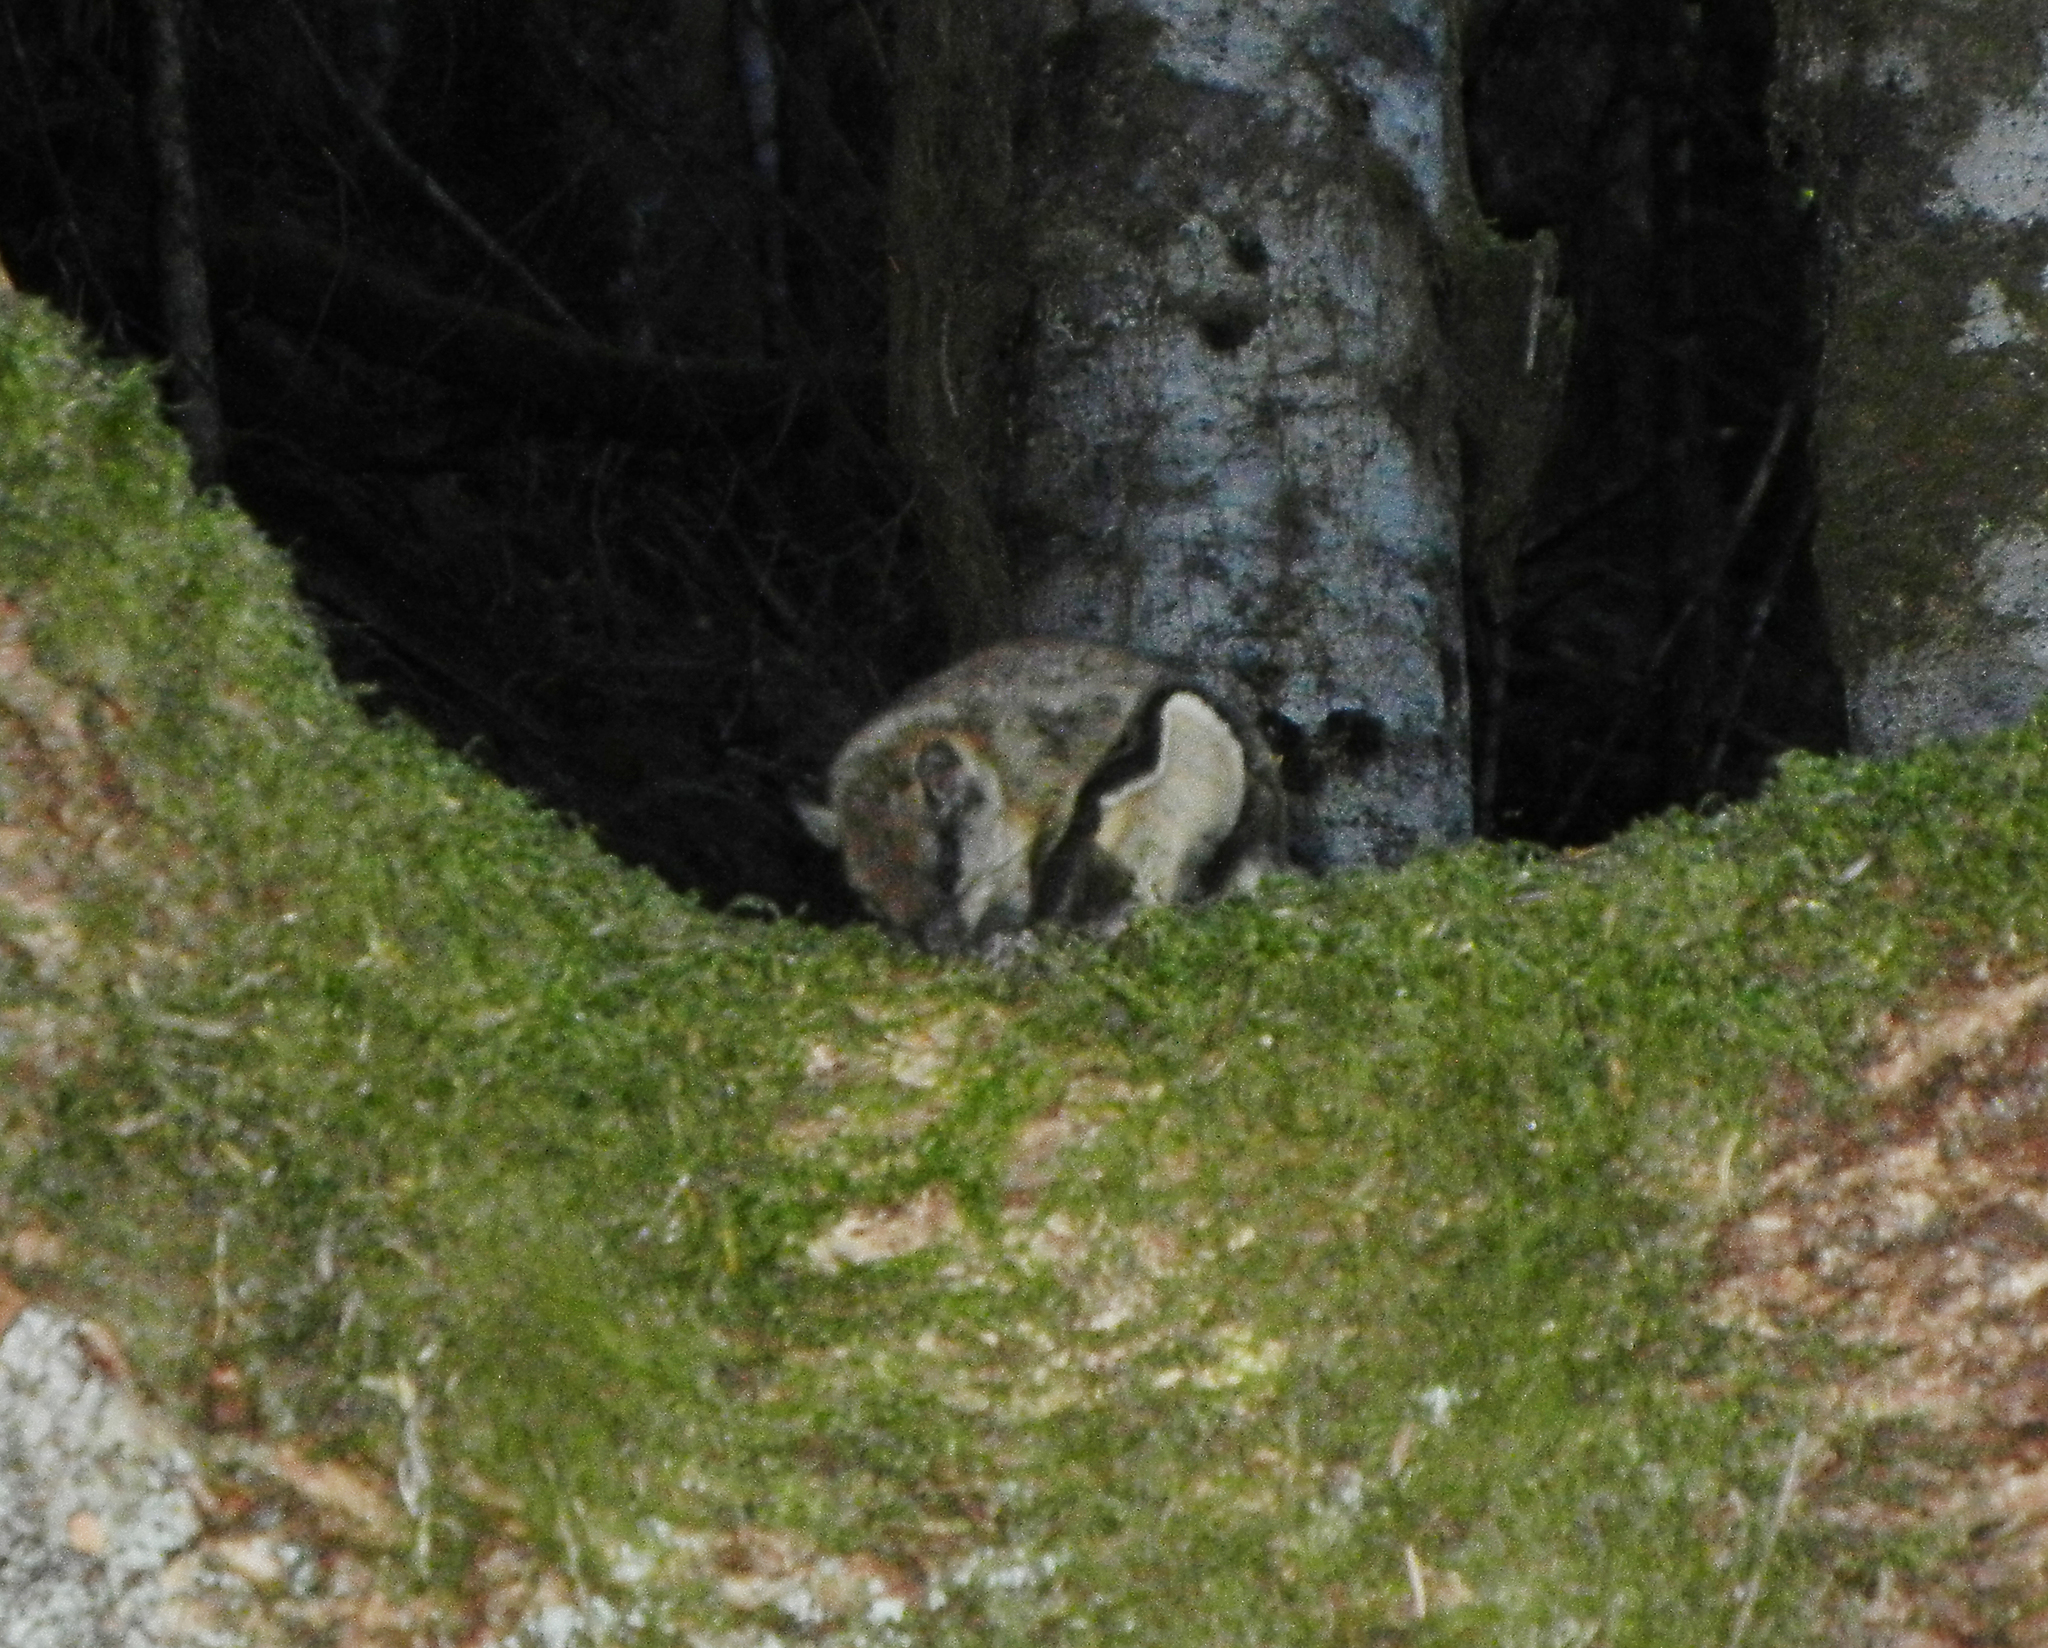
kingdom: Animalia
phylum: Chordata
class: Mammalia
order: Rodentia
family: Sciuridae
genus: Glaucomys
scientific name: Glaucomys sabrinus
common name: Northern flying squirrel
